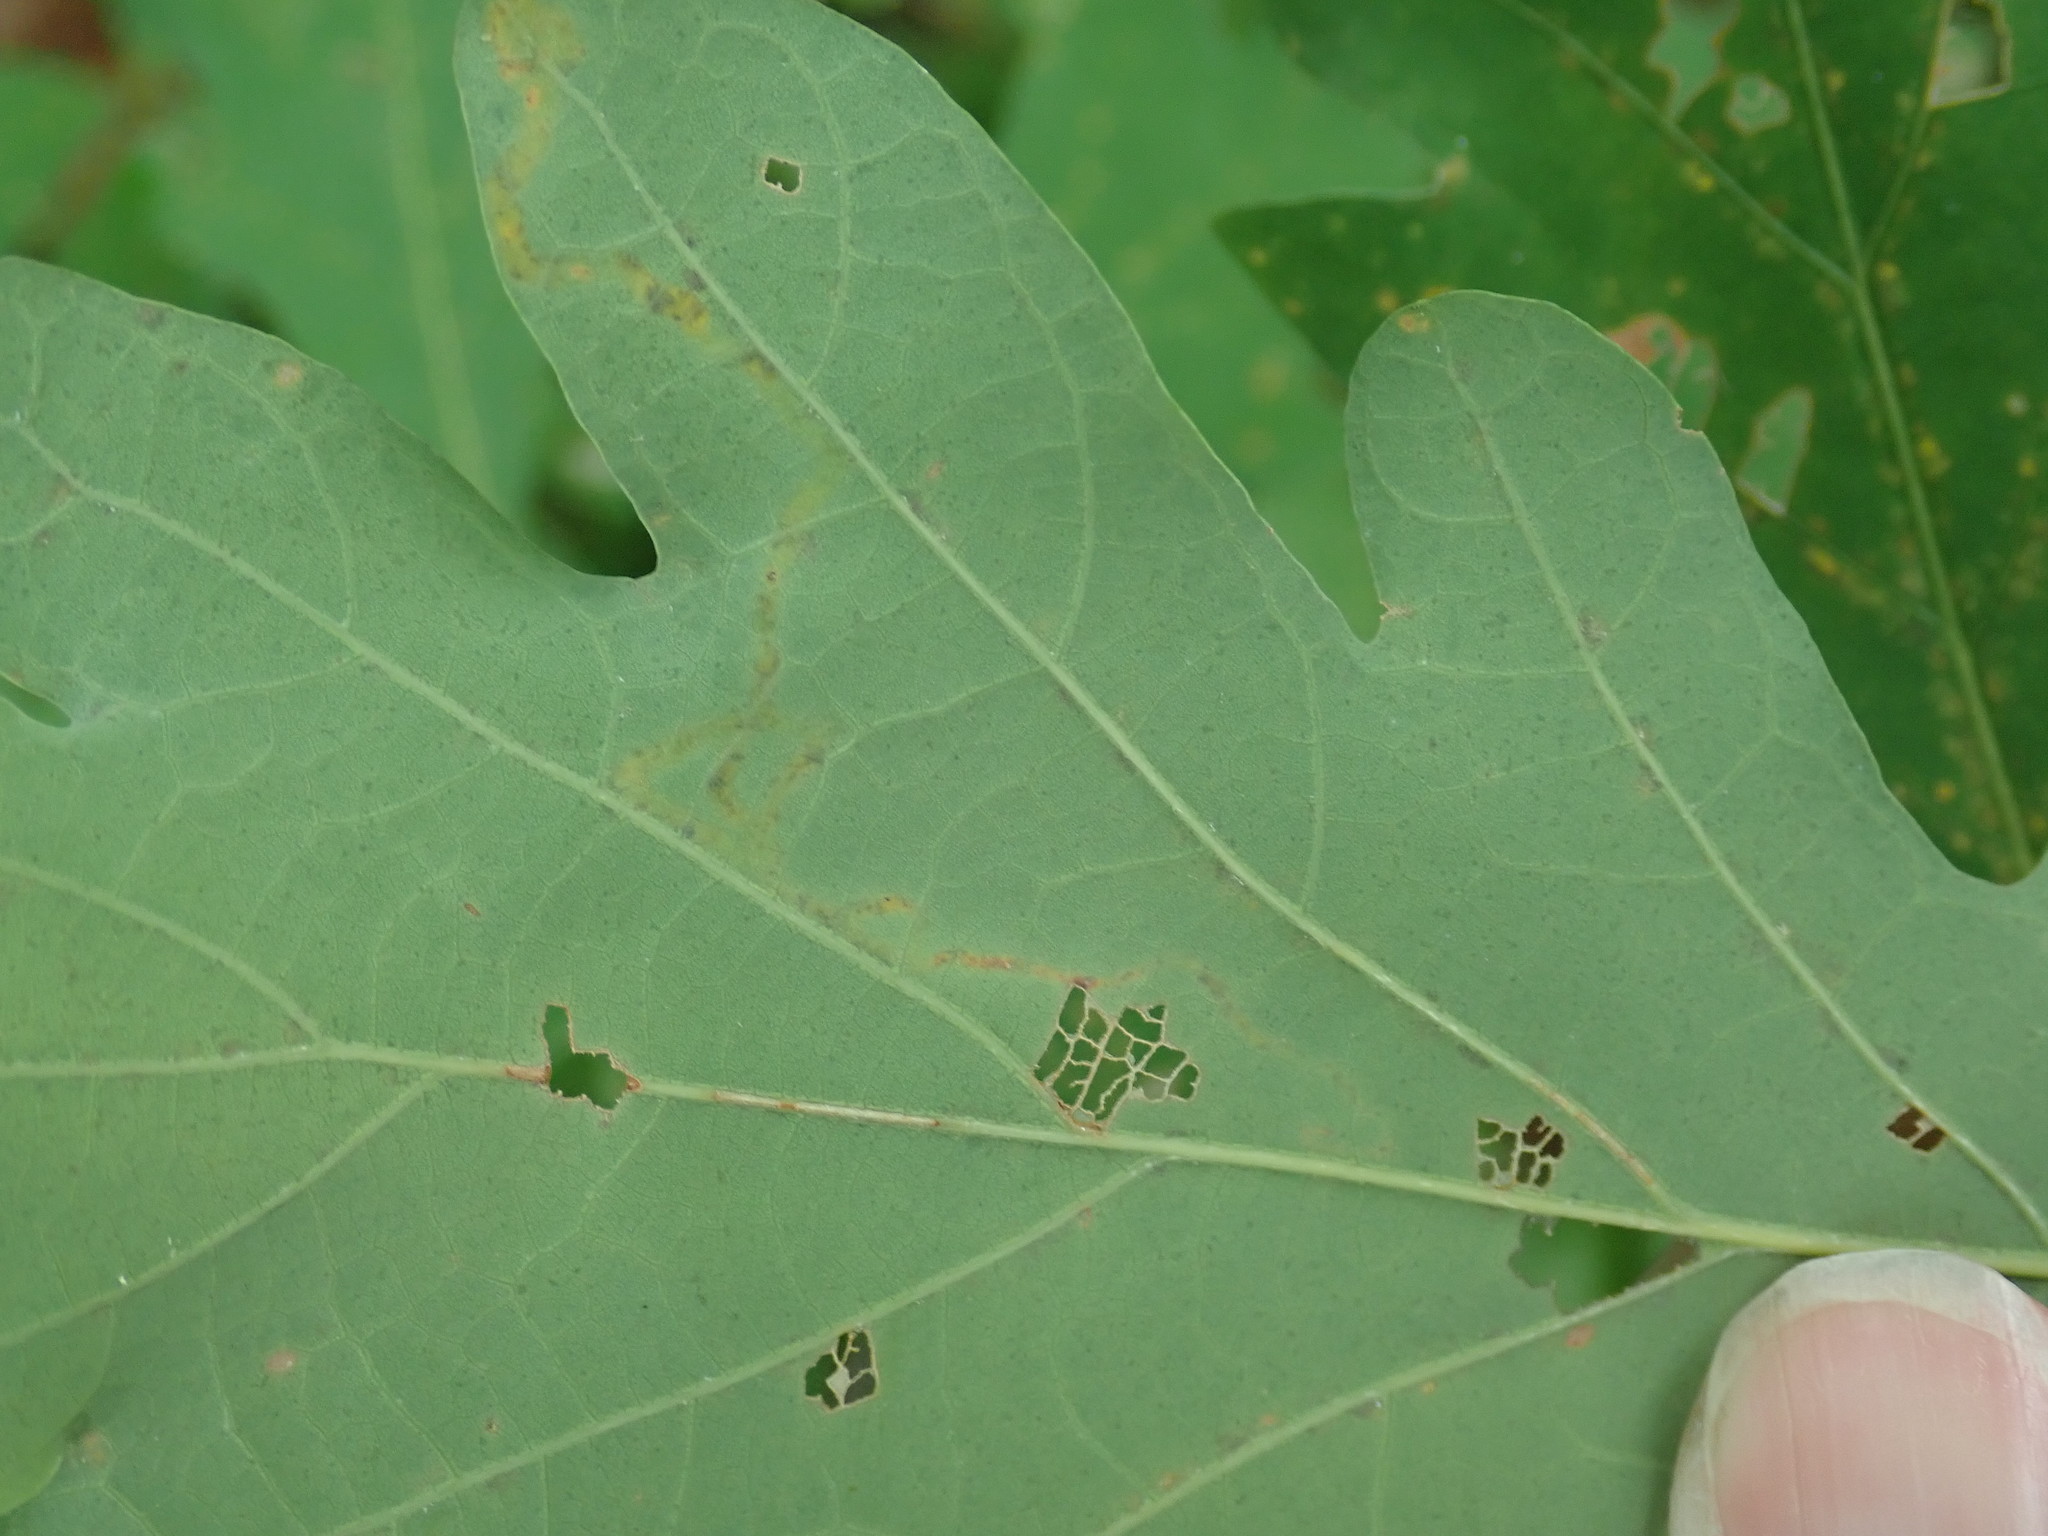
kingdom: Animalia
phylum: Arthropoda
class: Insecta
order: Lepidoptera
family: Gracillariidae
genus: Cryptolectica
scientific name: Cryptolectica
